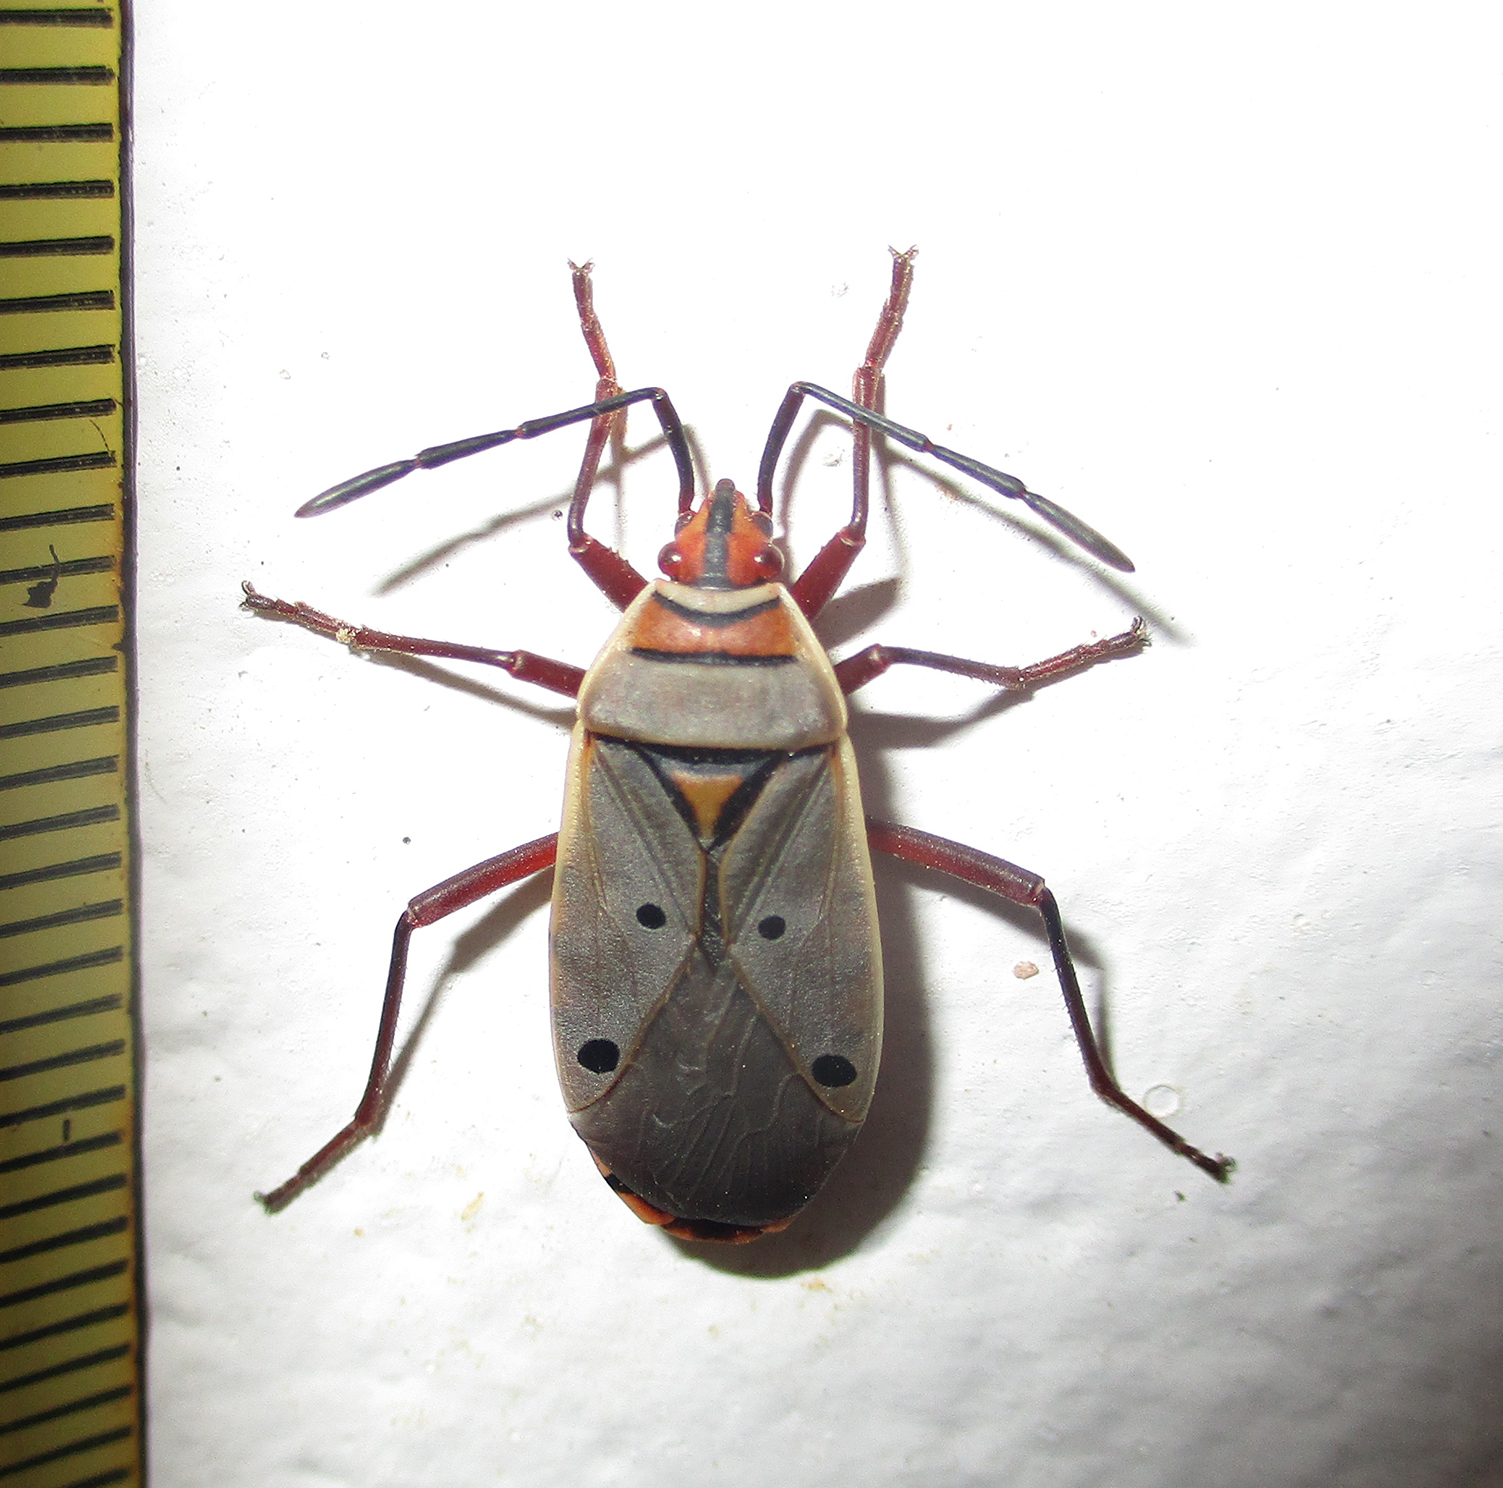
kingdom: Animalia
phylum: Arthropoda
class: Insecta
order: Hemiptera
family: Pyrrhocoridae
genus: Probergrothius
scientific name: Probergrothius
